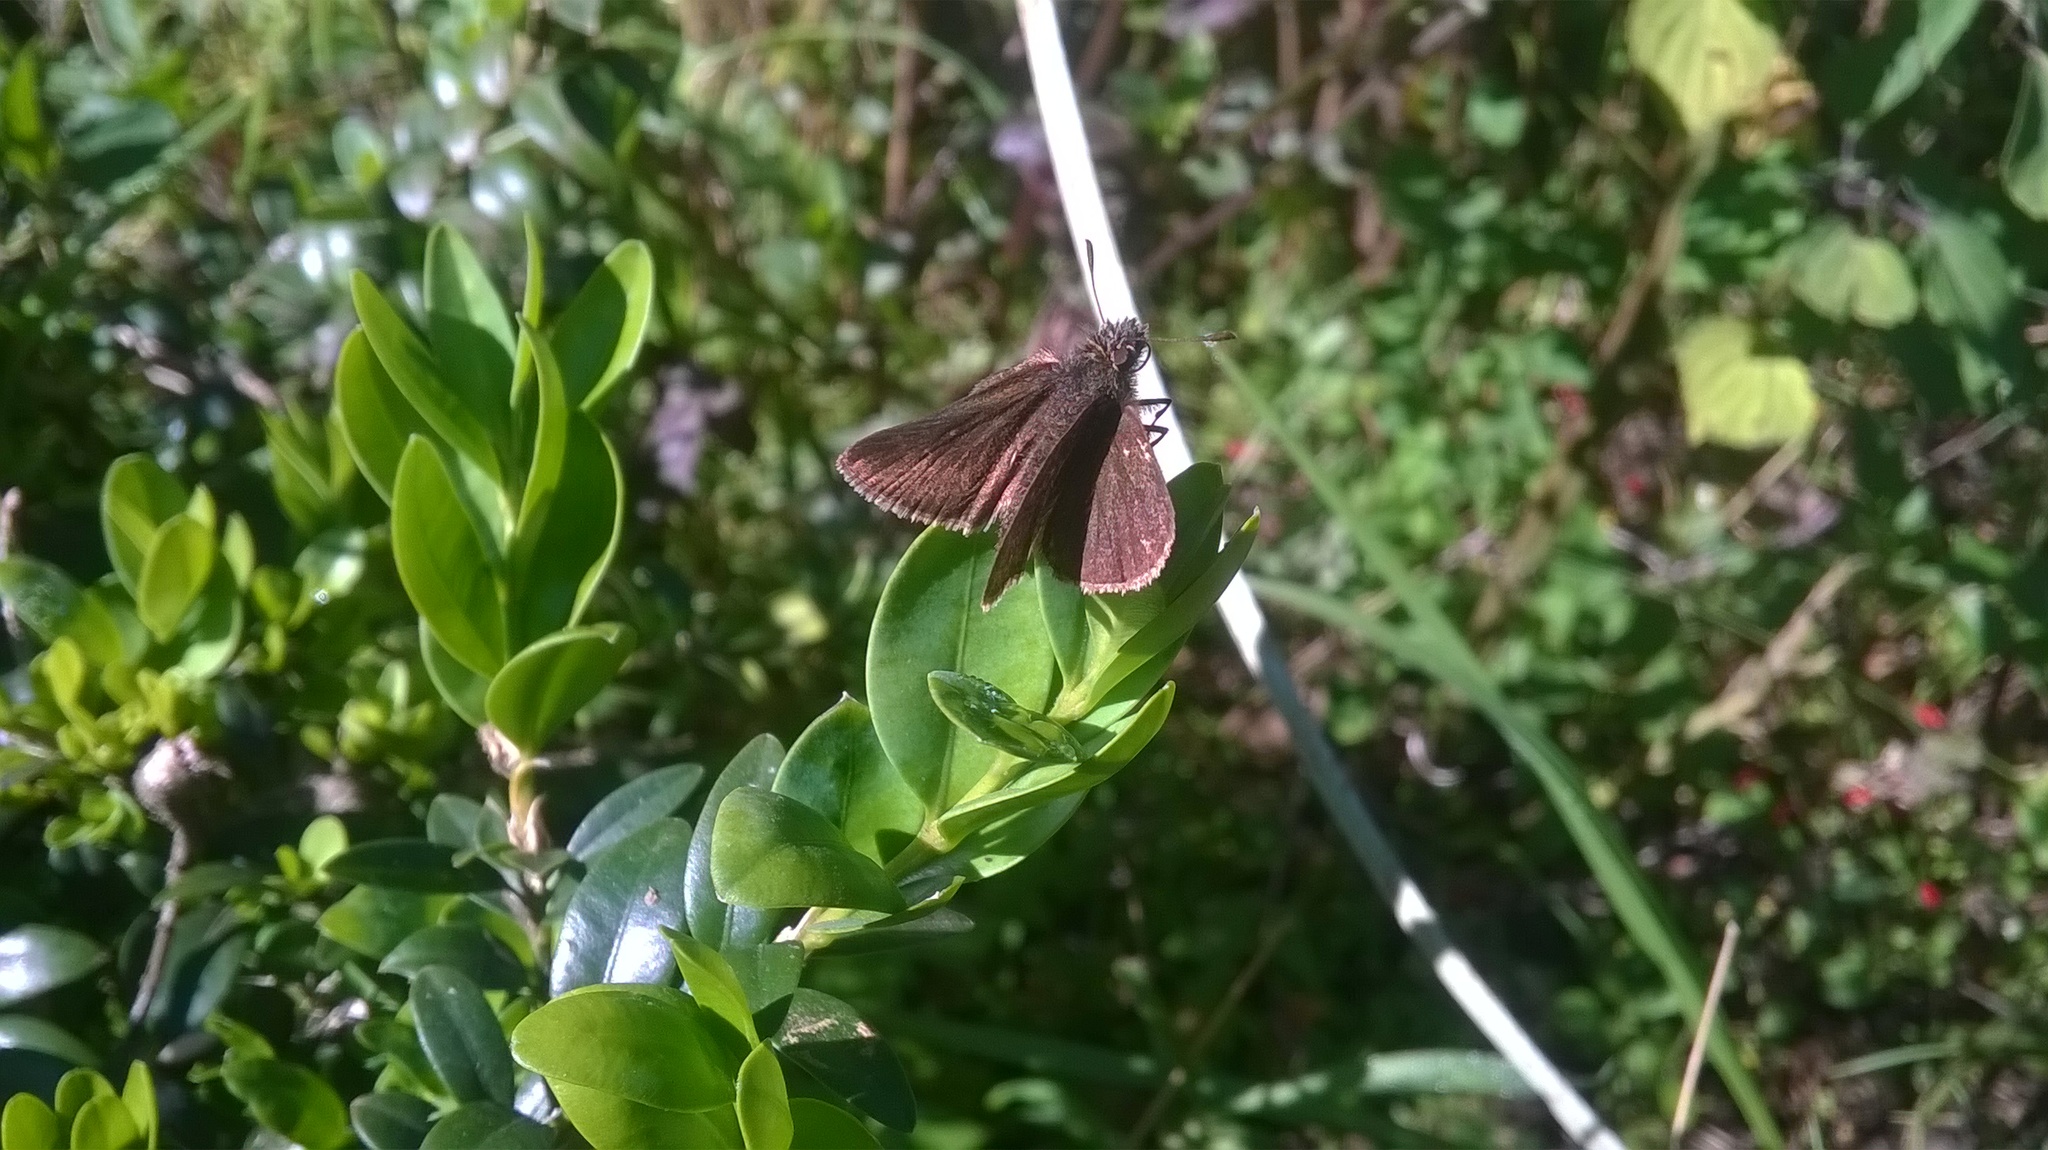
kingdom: Animalia
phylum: Arthropoda
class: Insecta
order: Lepidoptera
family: Hesperiidae
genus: Aeromachus
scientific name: Aeromachus dubius
